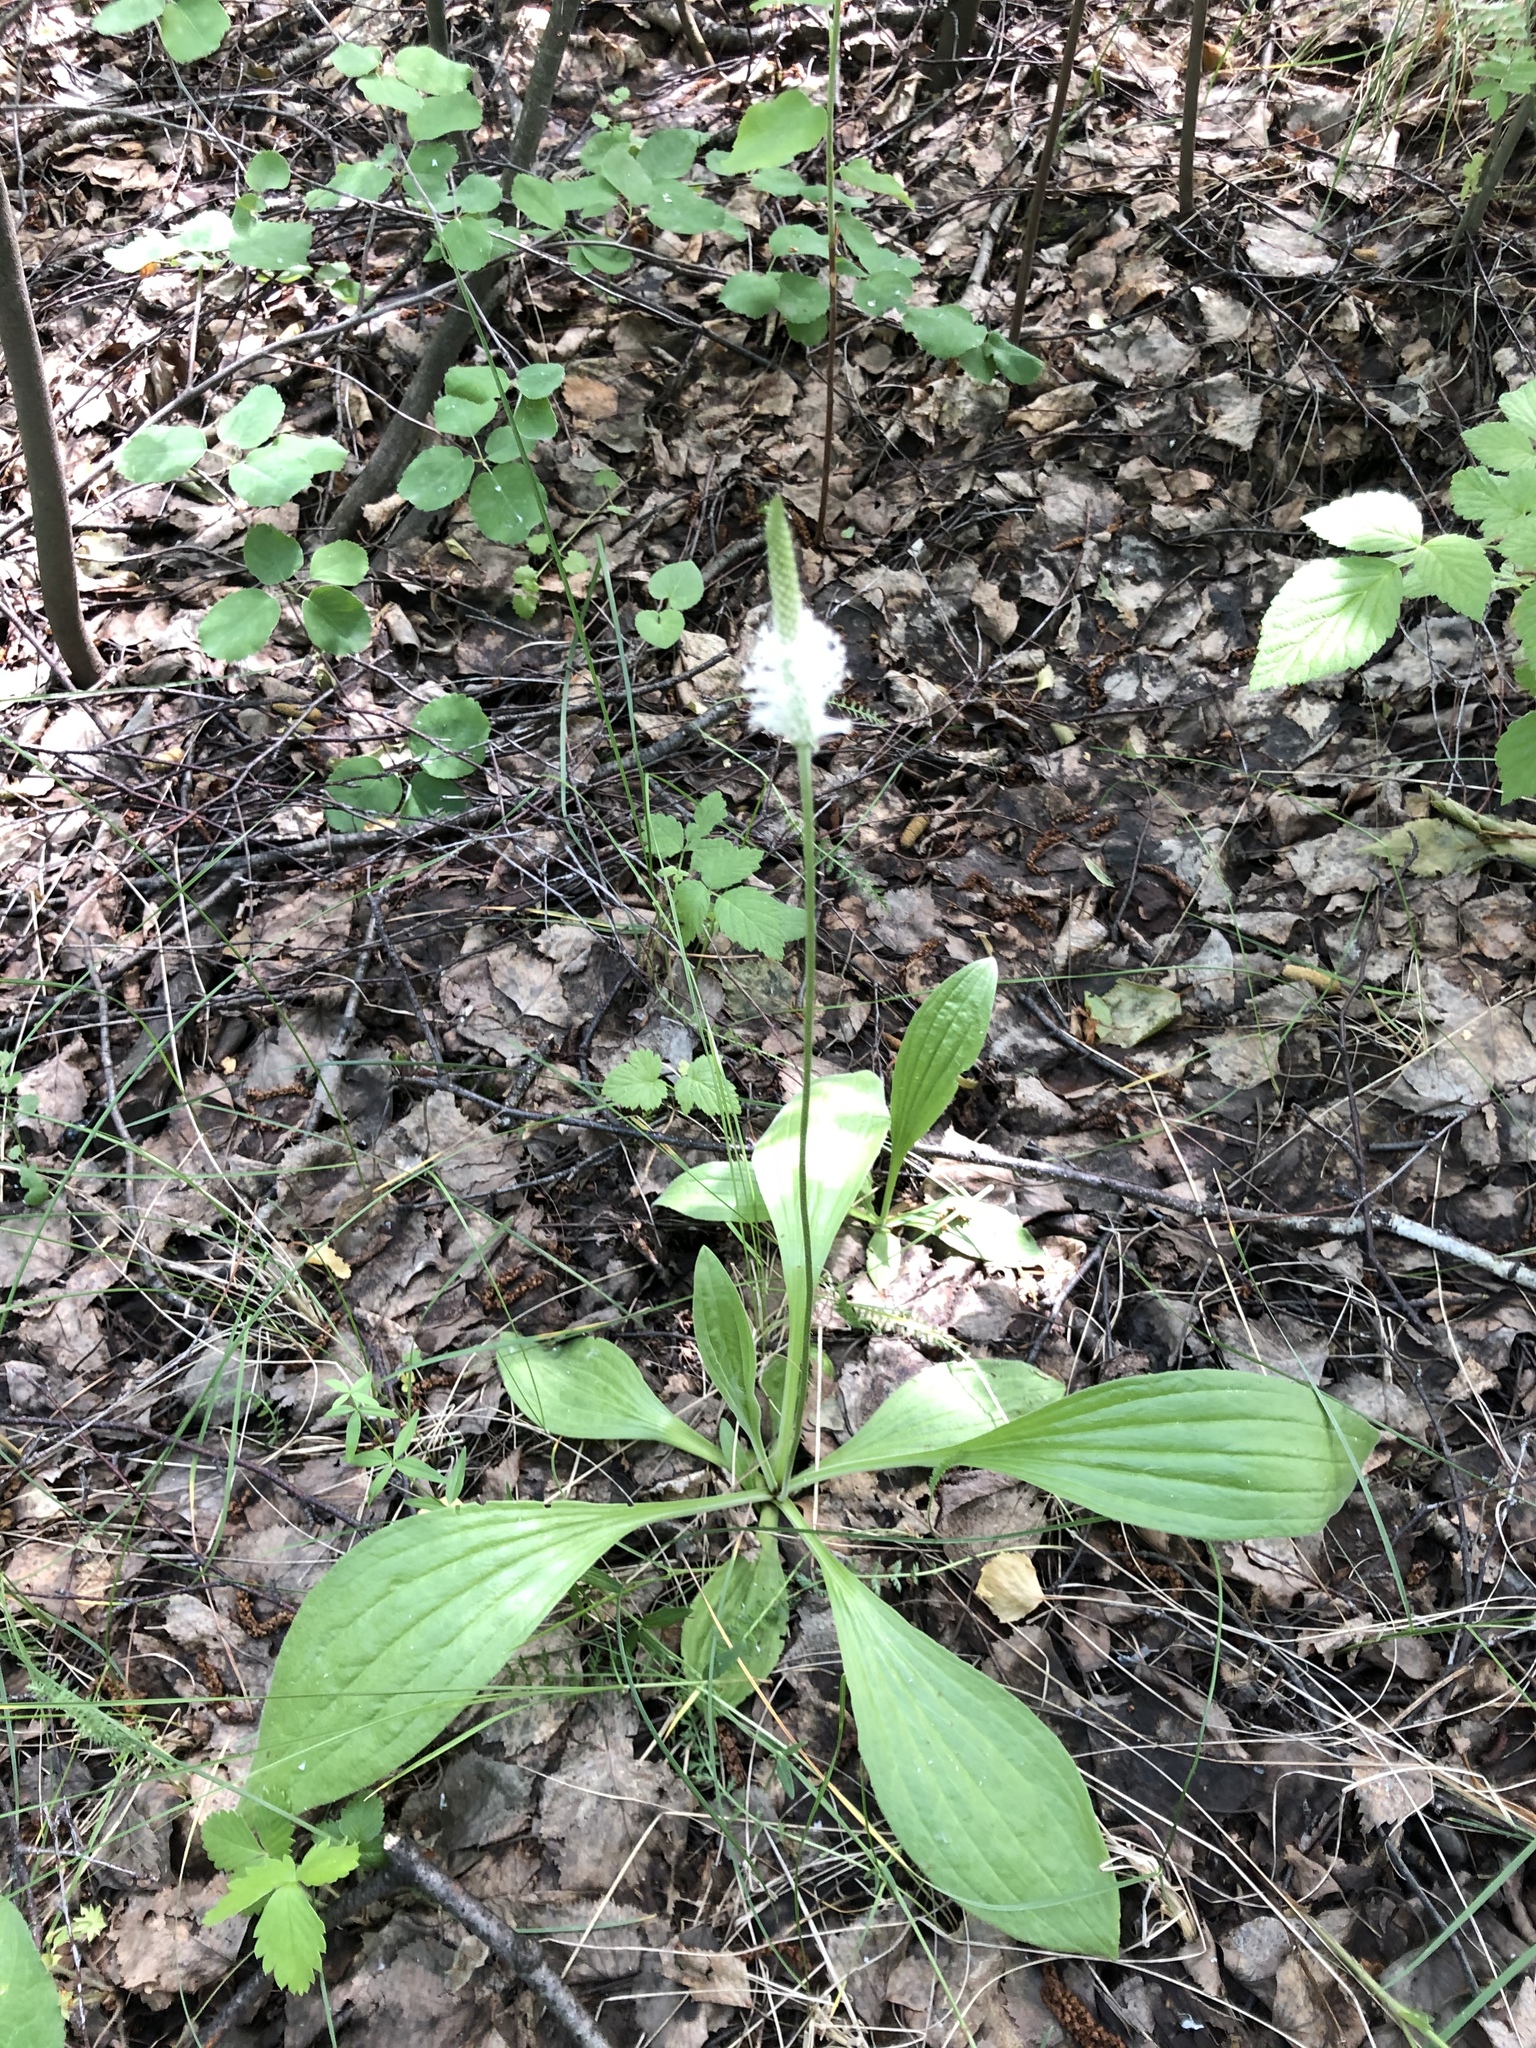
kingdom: Plantae
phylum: Tracheophyta
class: Magnoliopsida
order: Lamiales
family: Plantaginaceae
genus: Plantago
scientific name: Plantago urvillei
